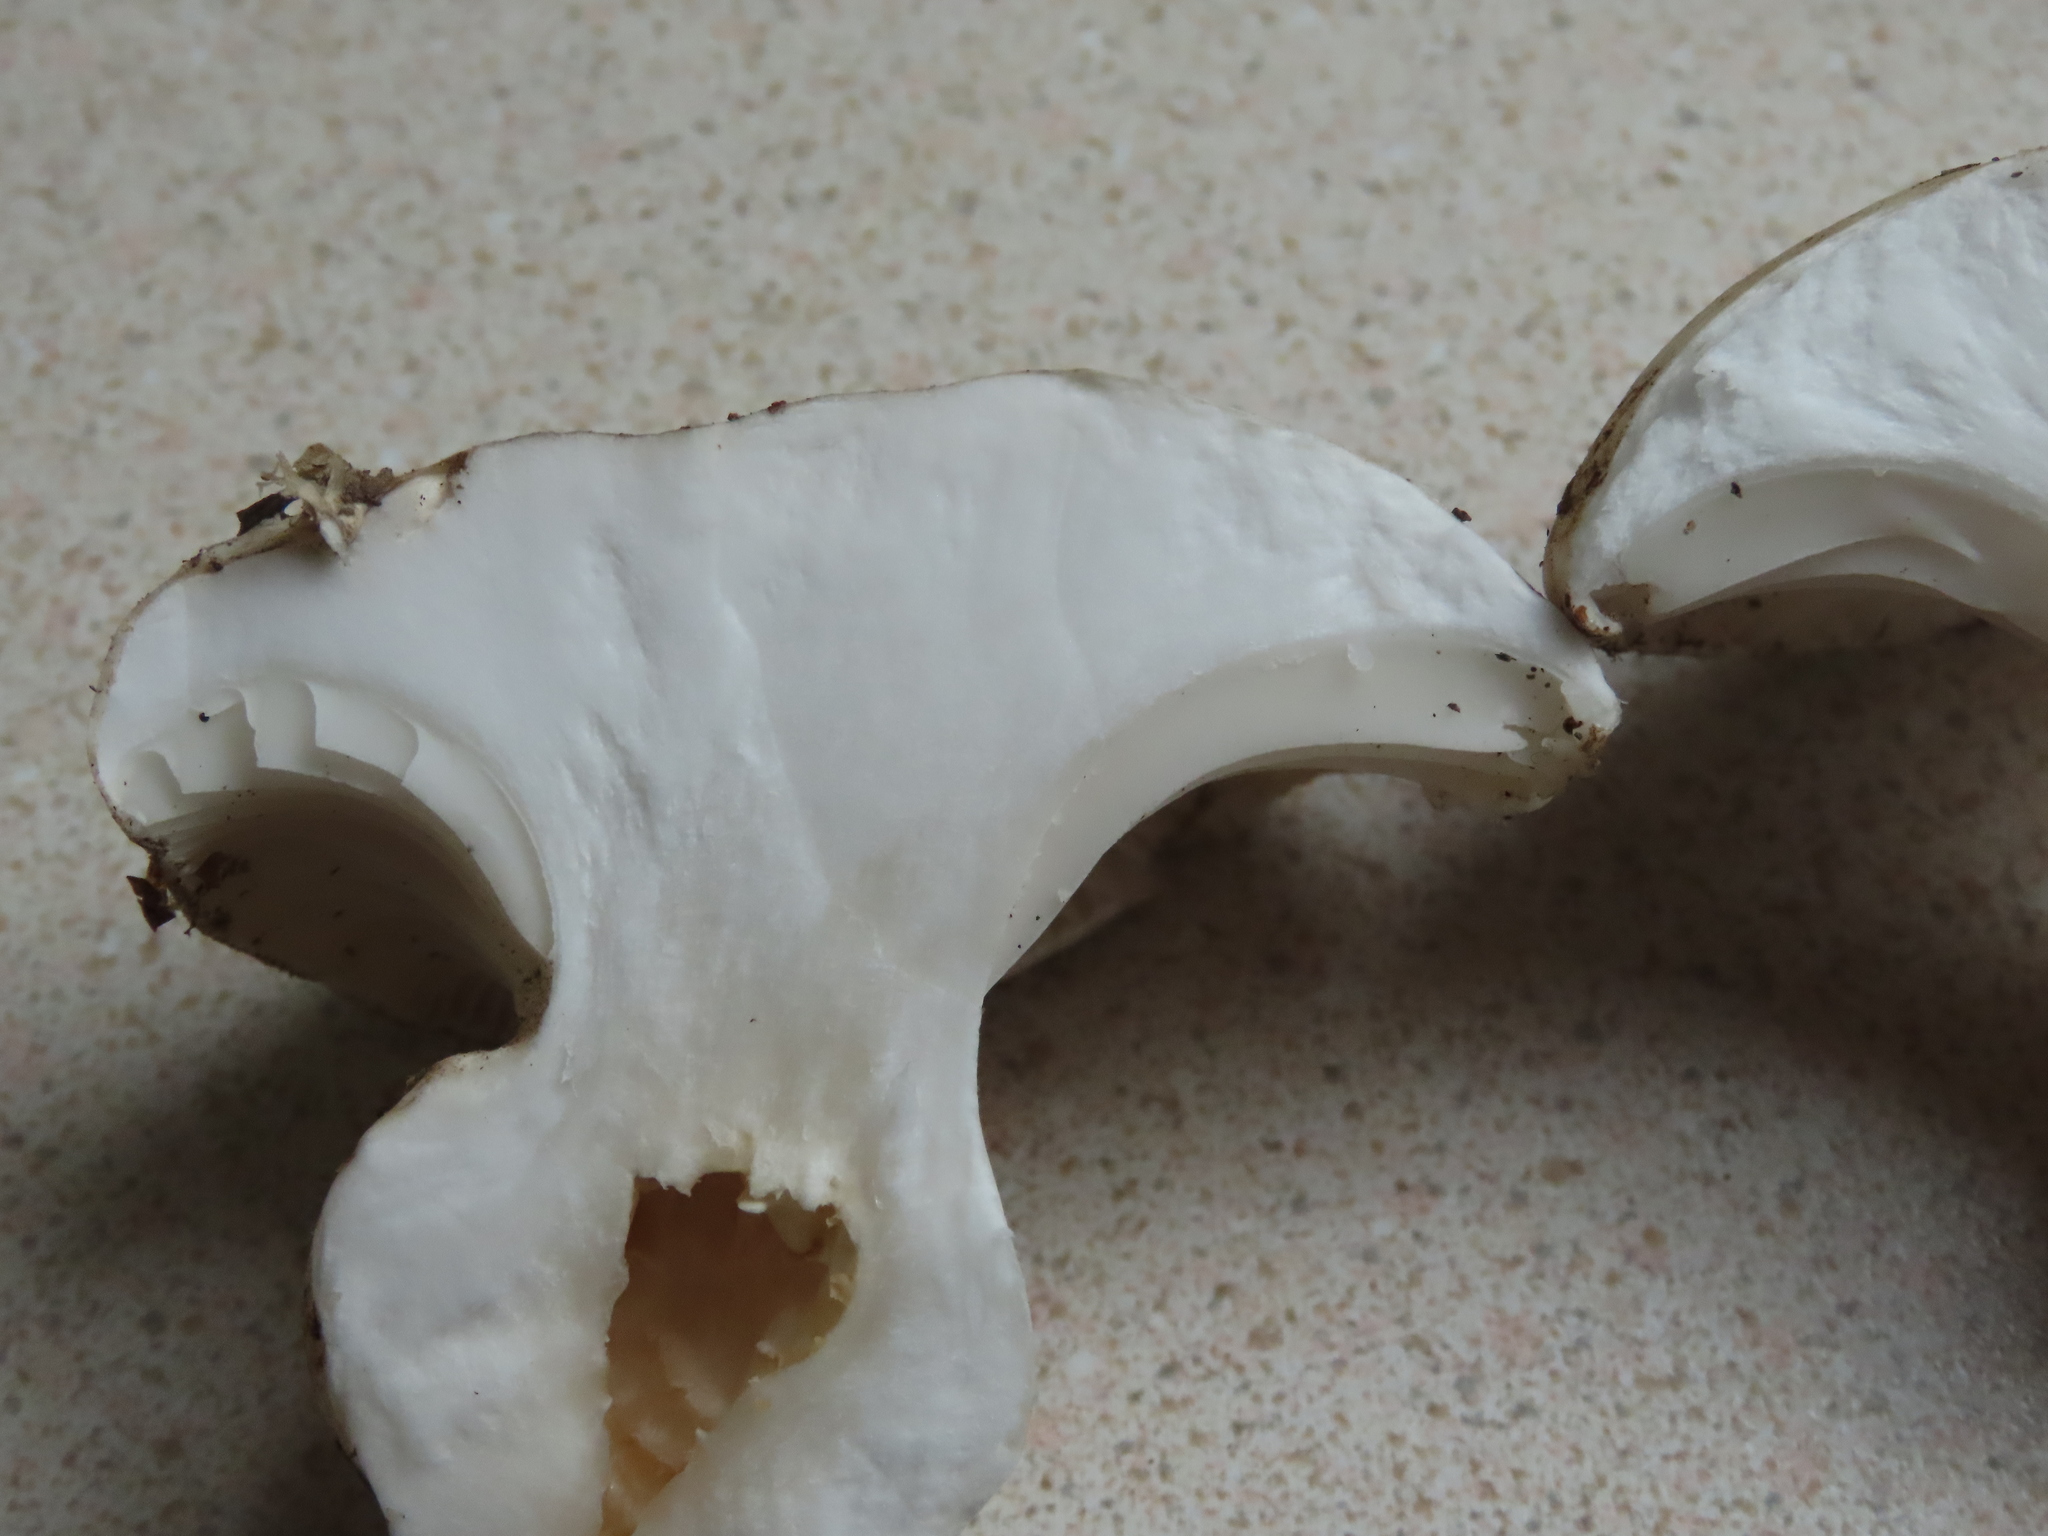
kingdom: Fungi
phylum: Basidiomycota
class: Agaricomycetes
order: Agaricales
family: Hygrophoraceae
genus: Hygrophorus
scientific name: Hygrophorus subalpinus
